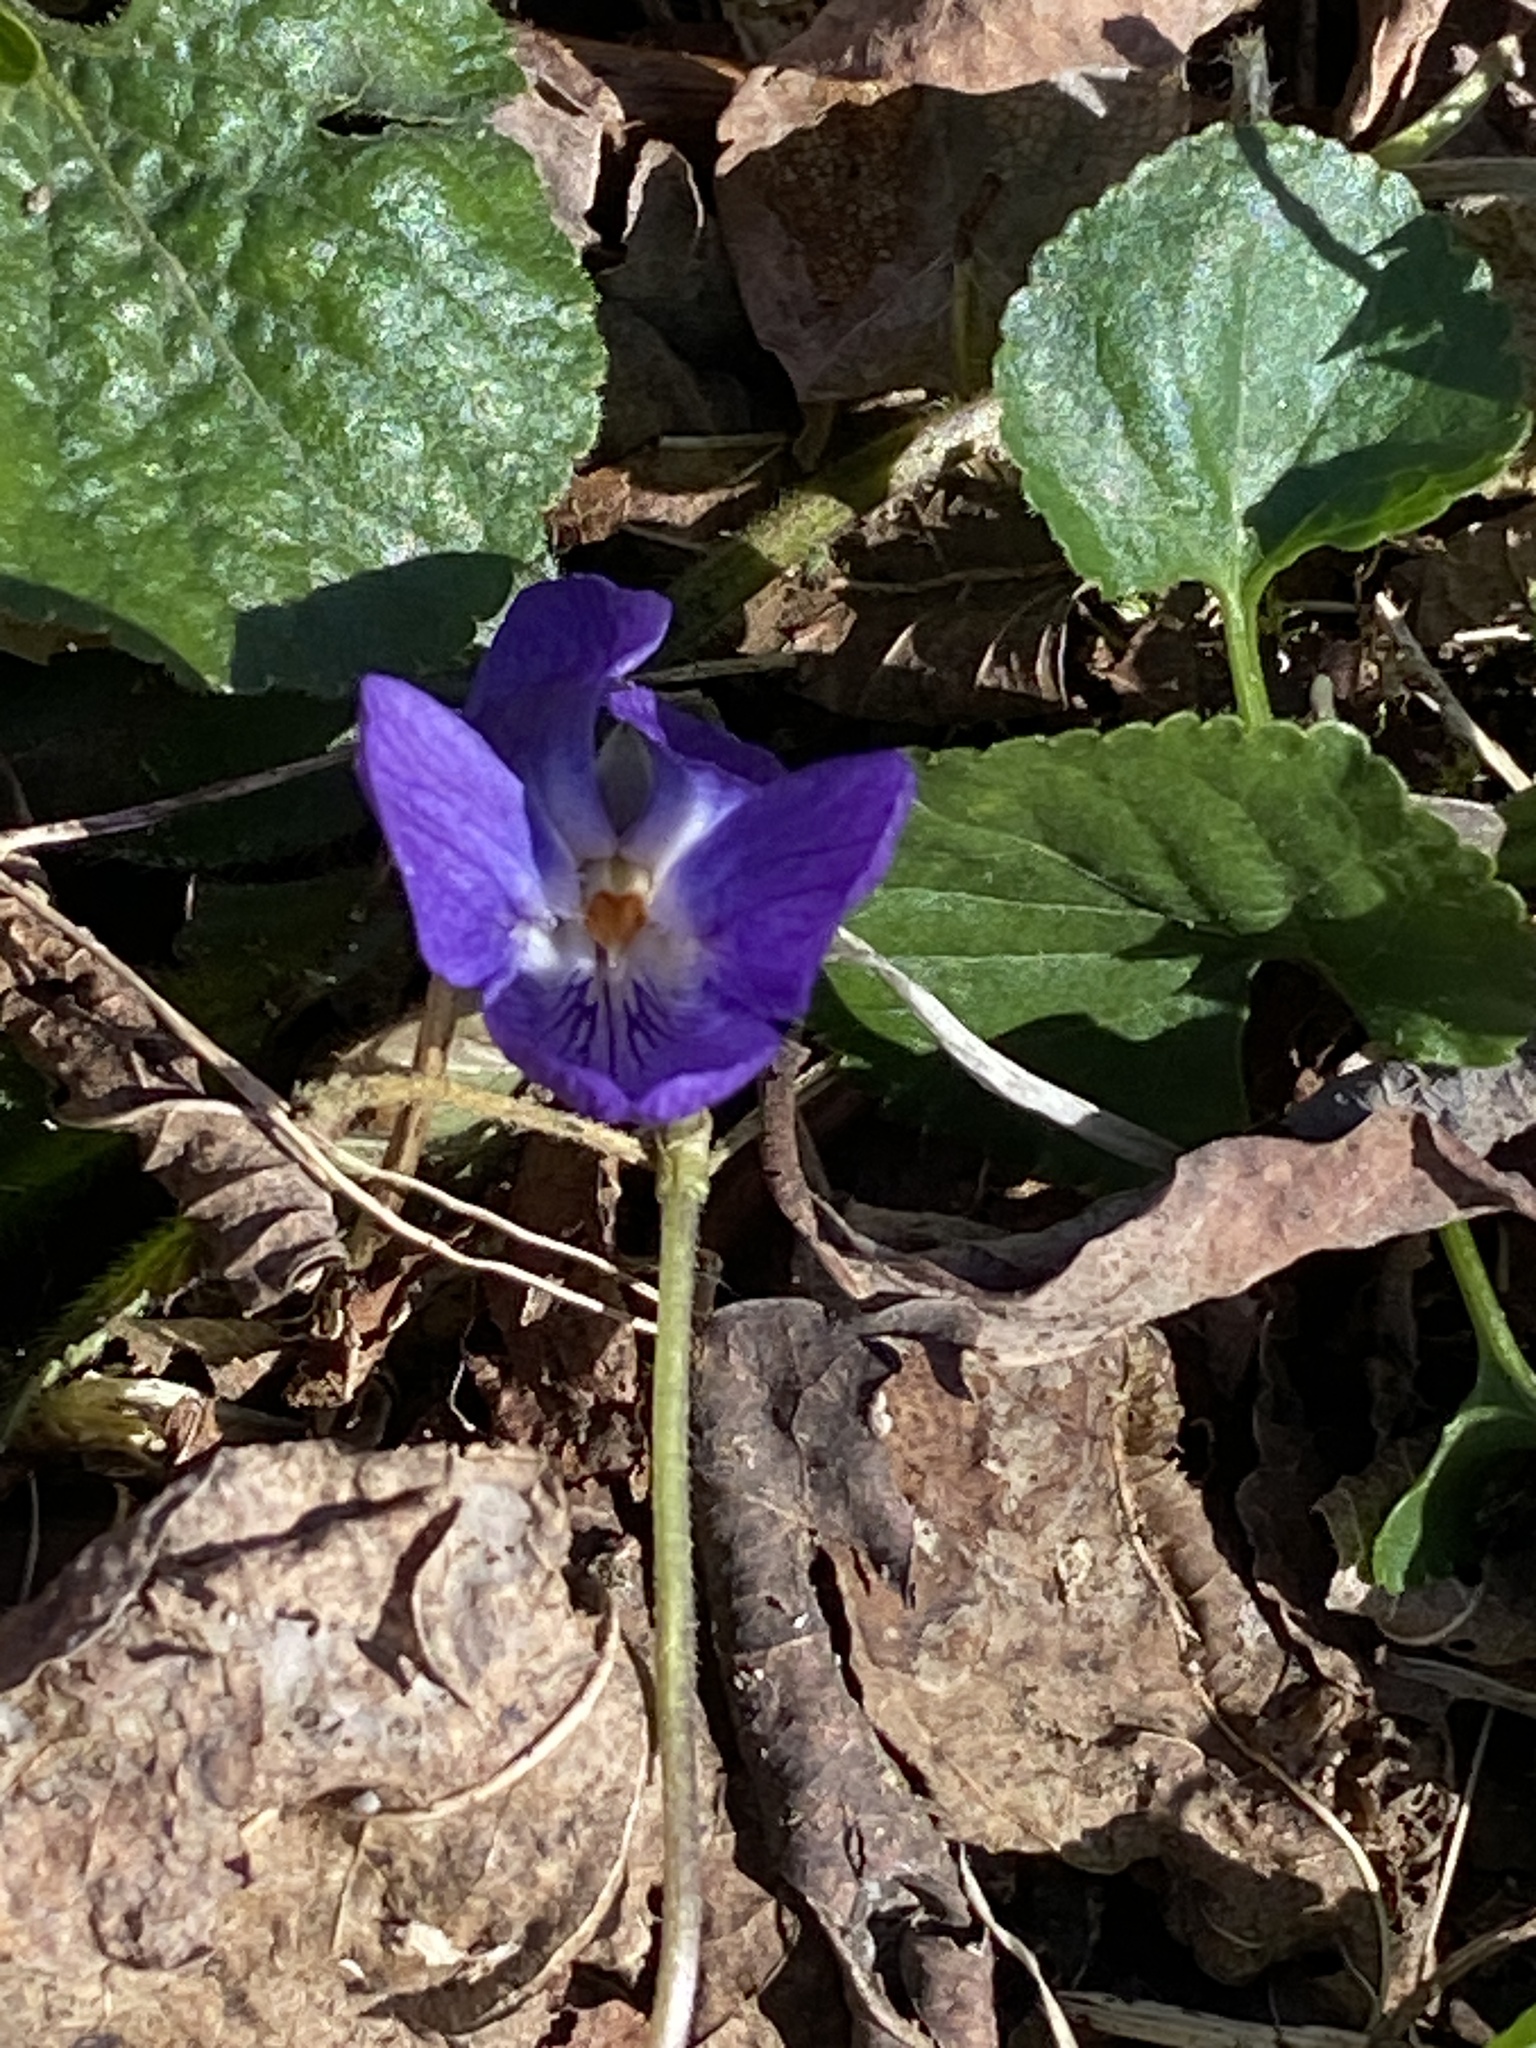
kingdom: Plantae
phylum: Tracheophyta
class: Magnoliopsida
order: Malpighiales
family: Violaceae
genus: Viola
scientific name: Viola odorata
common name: Sweet violet
